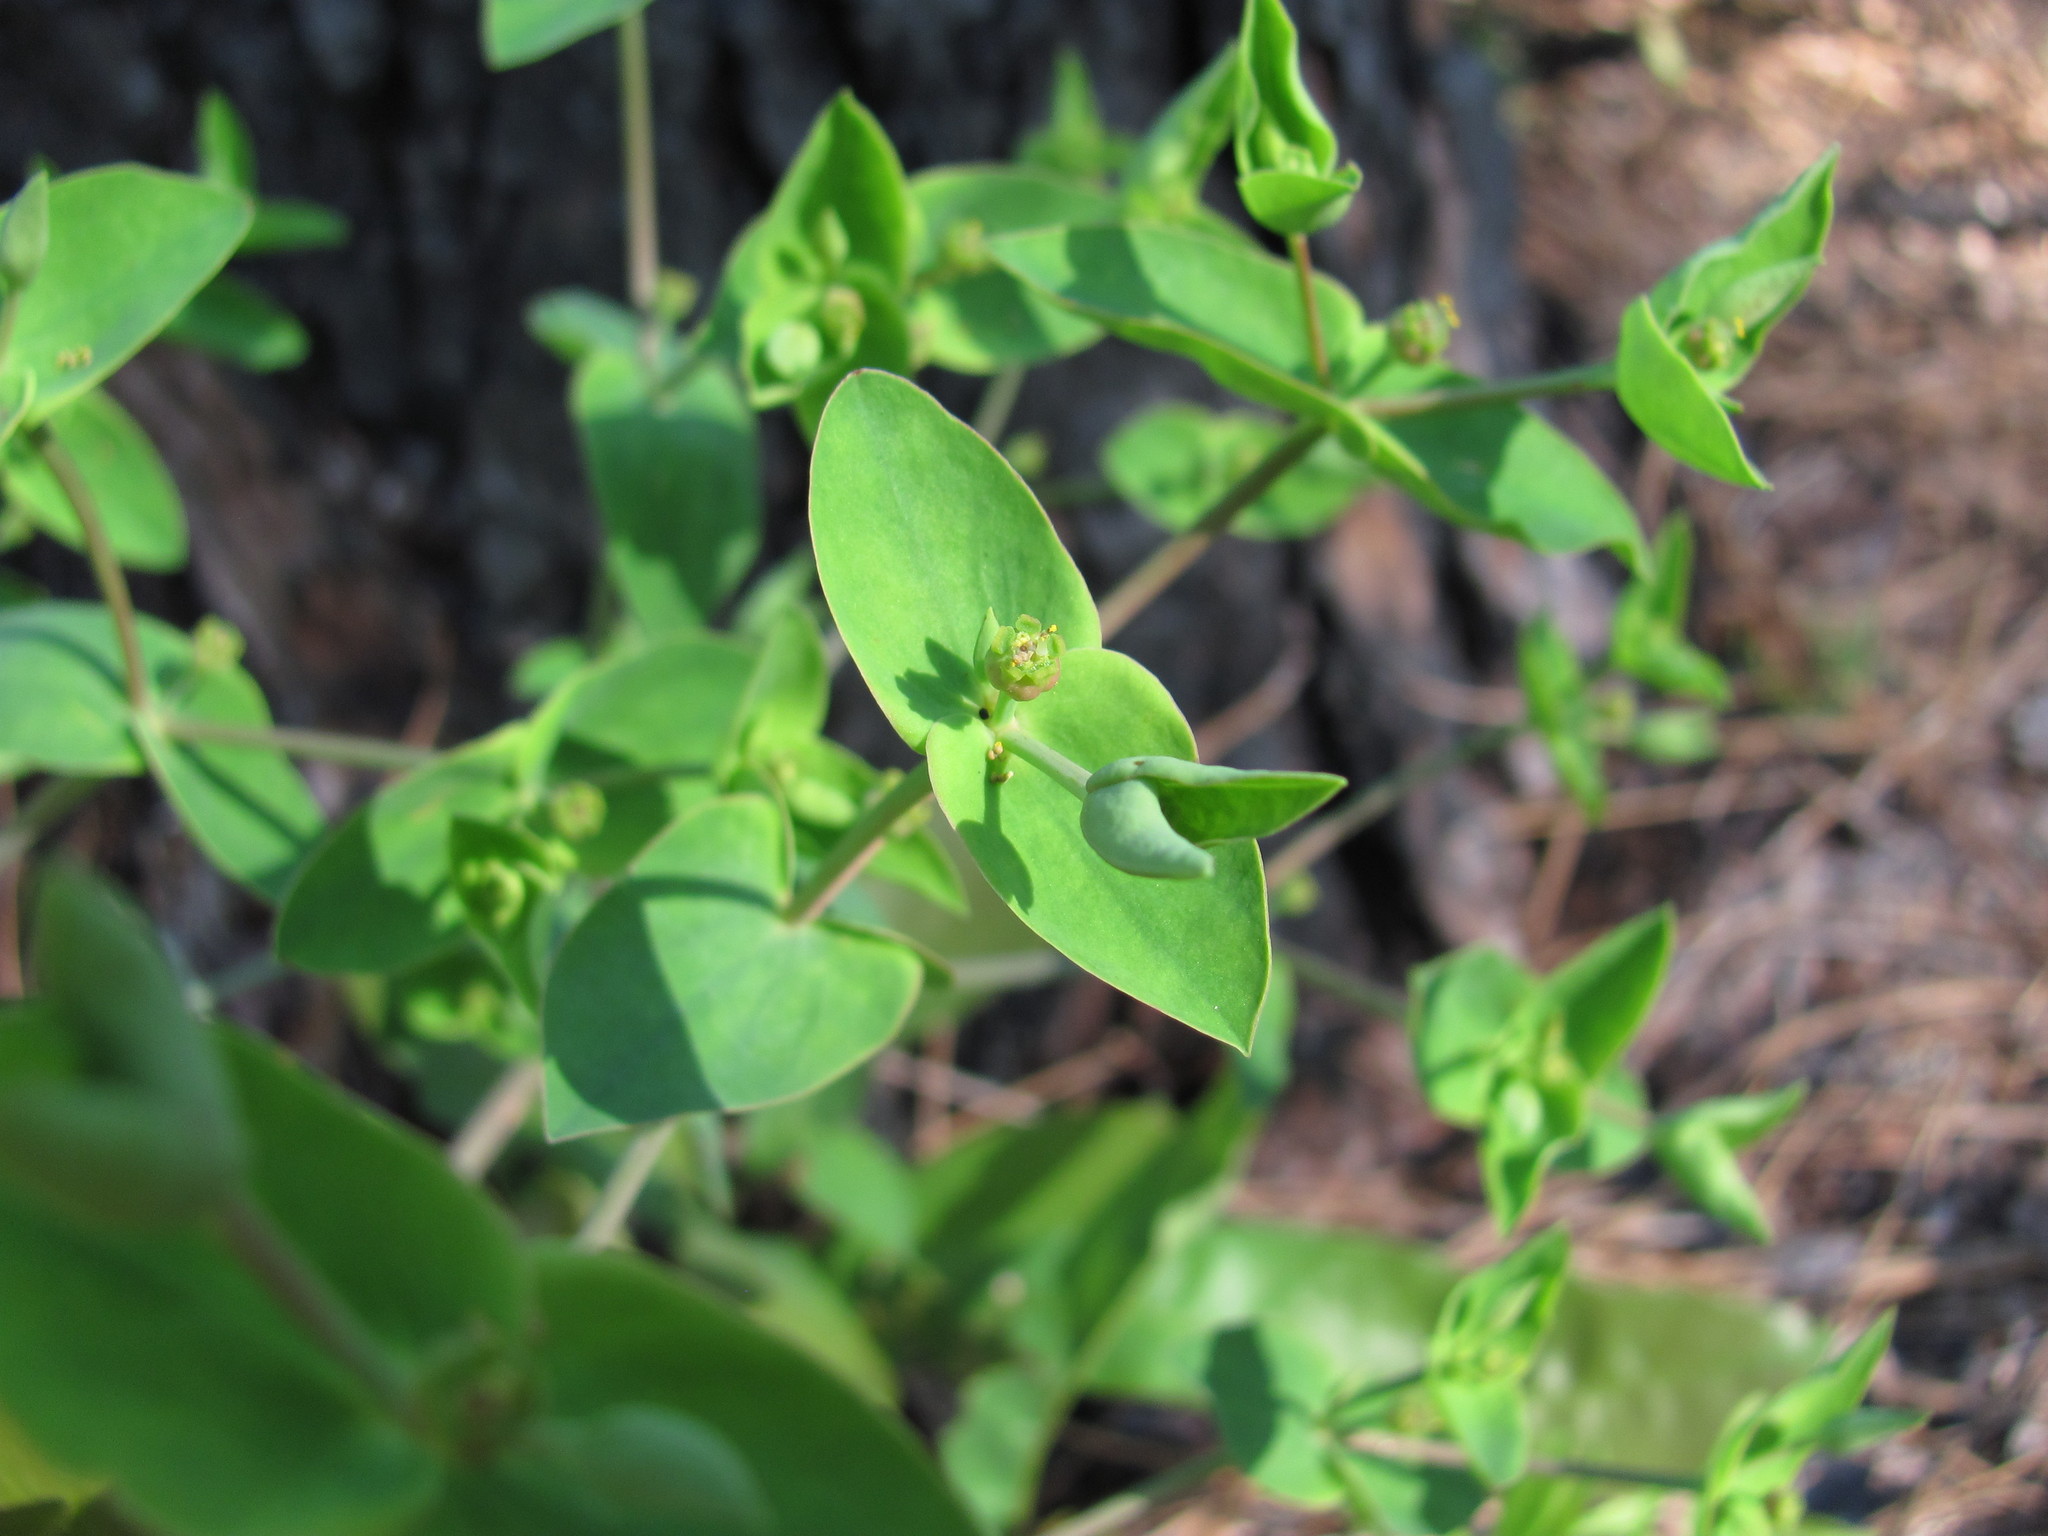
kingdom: Plantae
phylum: Tracheophyta
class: Magnoliopsida
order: Malpighiales
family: Euphorbiaceae
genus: Euphorbia
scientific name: Euphorbia floridana
